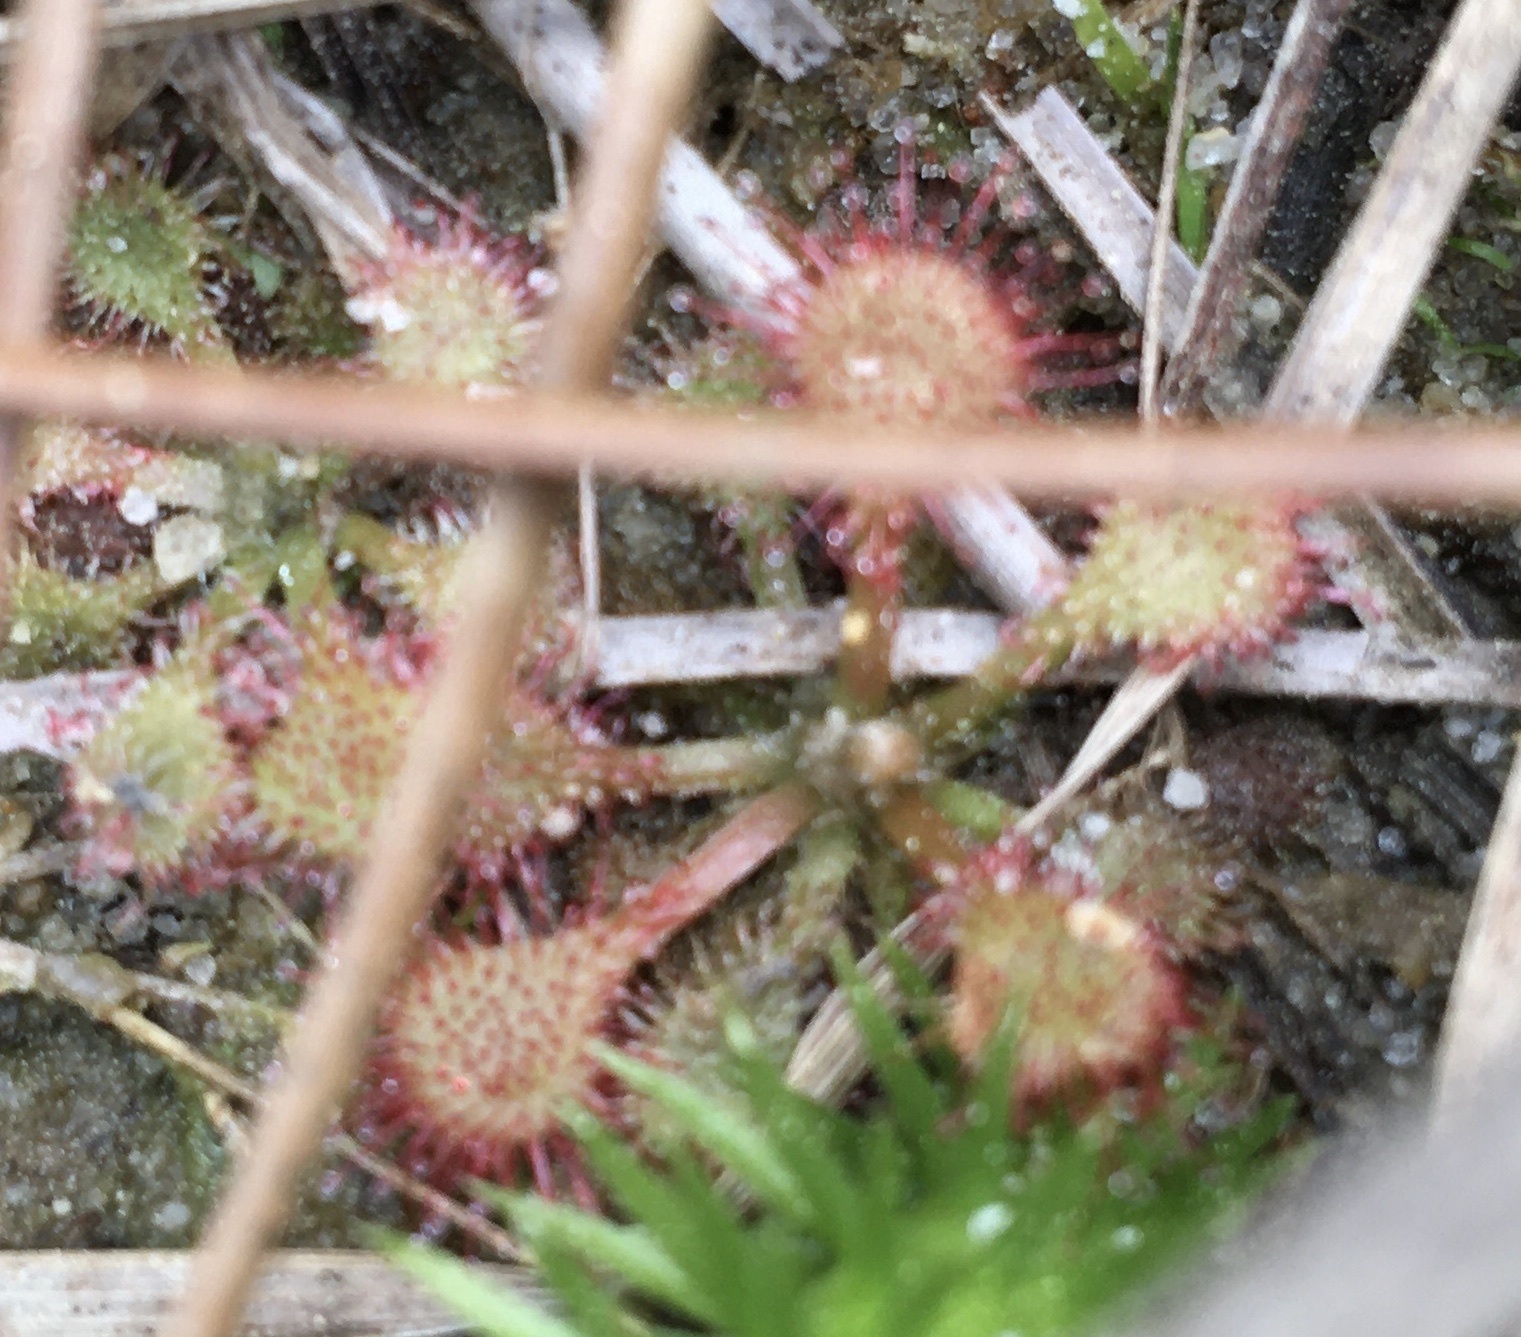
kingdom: Plantae
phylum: Tracheophyta
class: Magnoliopsida
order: Caryophyllales
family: Droseraceae
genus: Drosera
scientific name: Drosera capillaris
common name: Pink sundew
